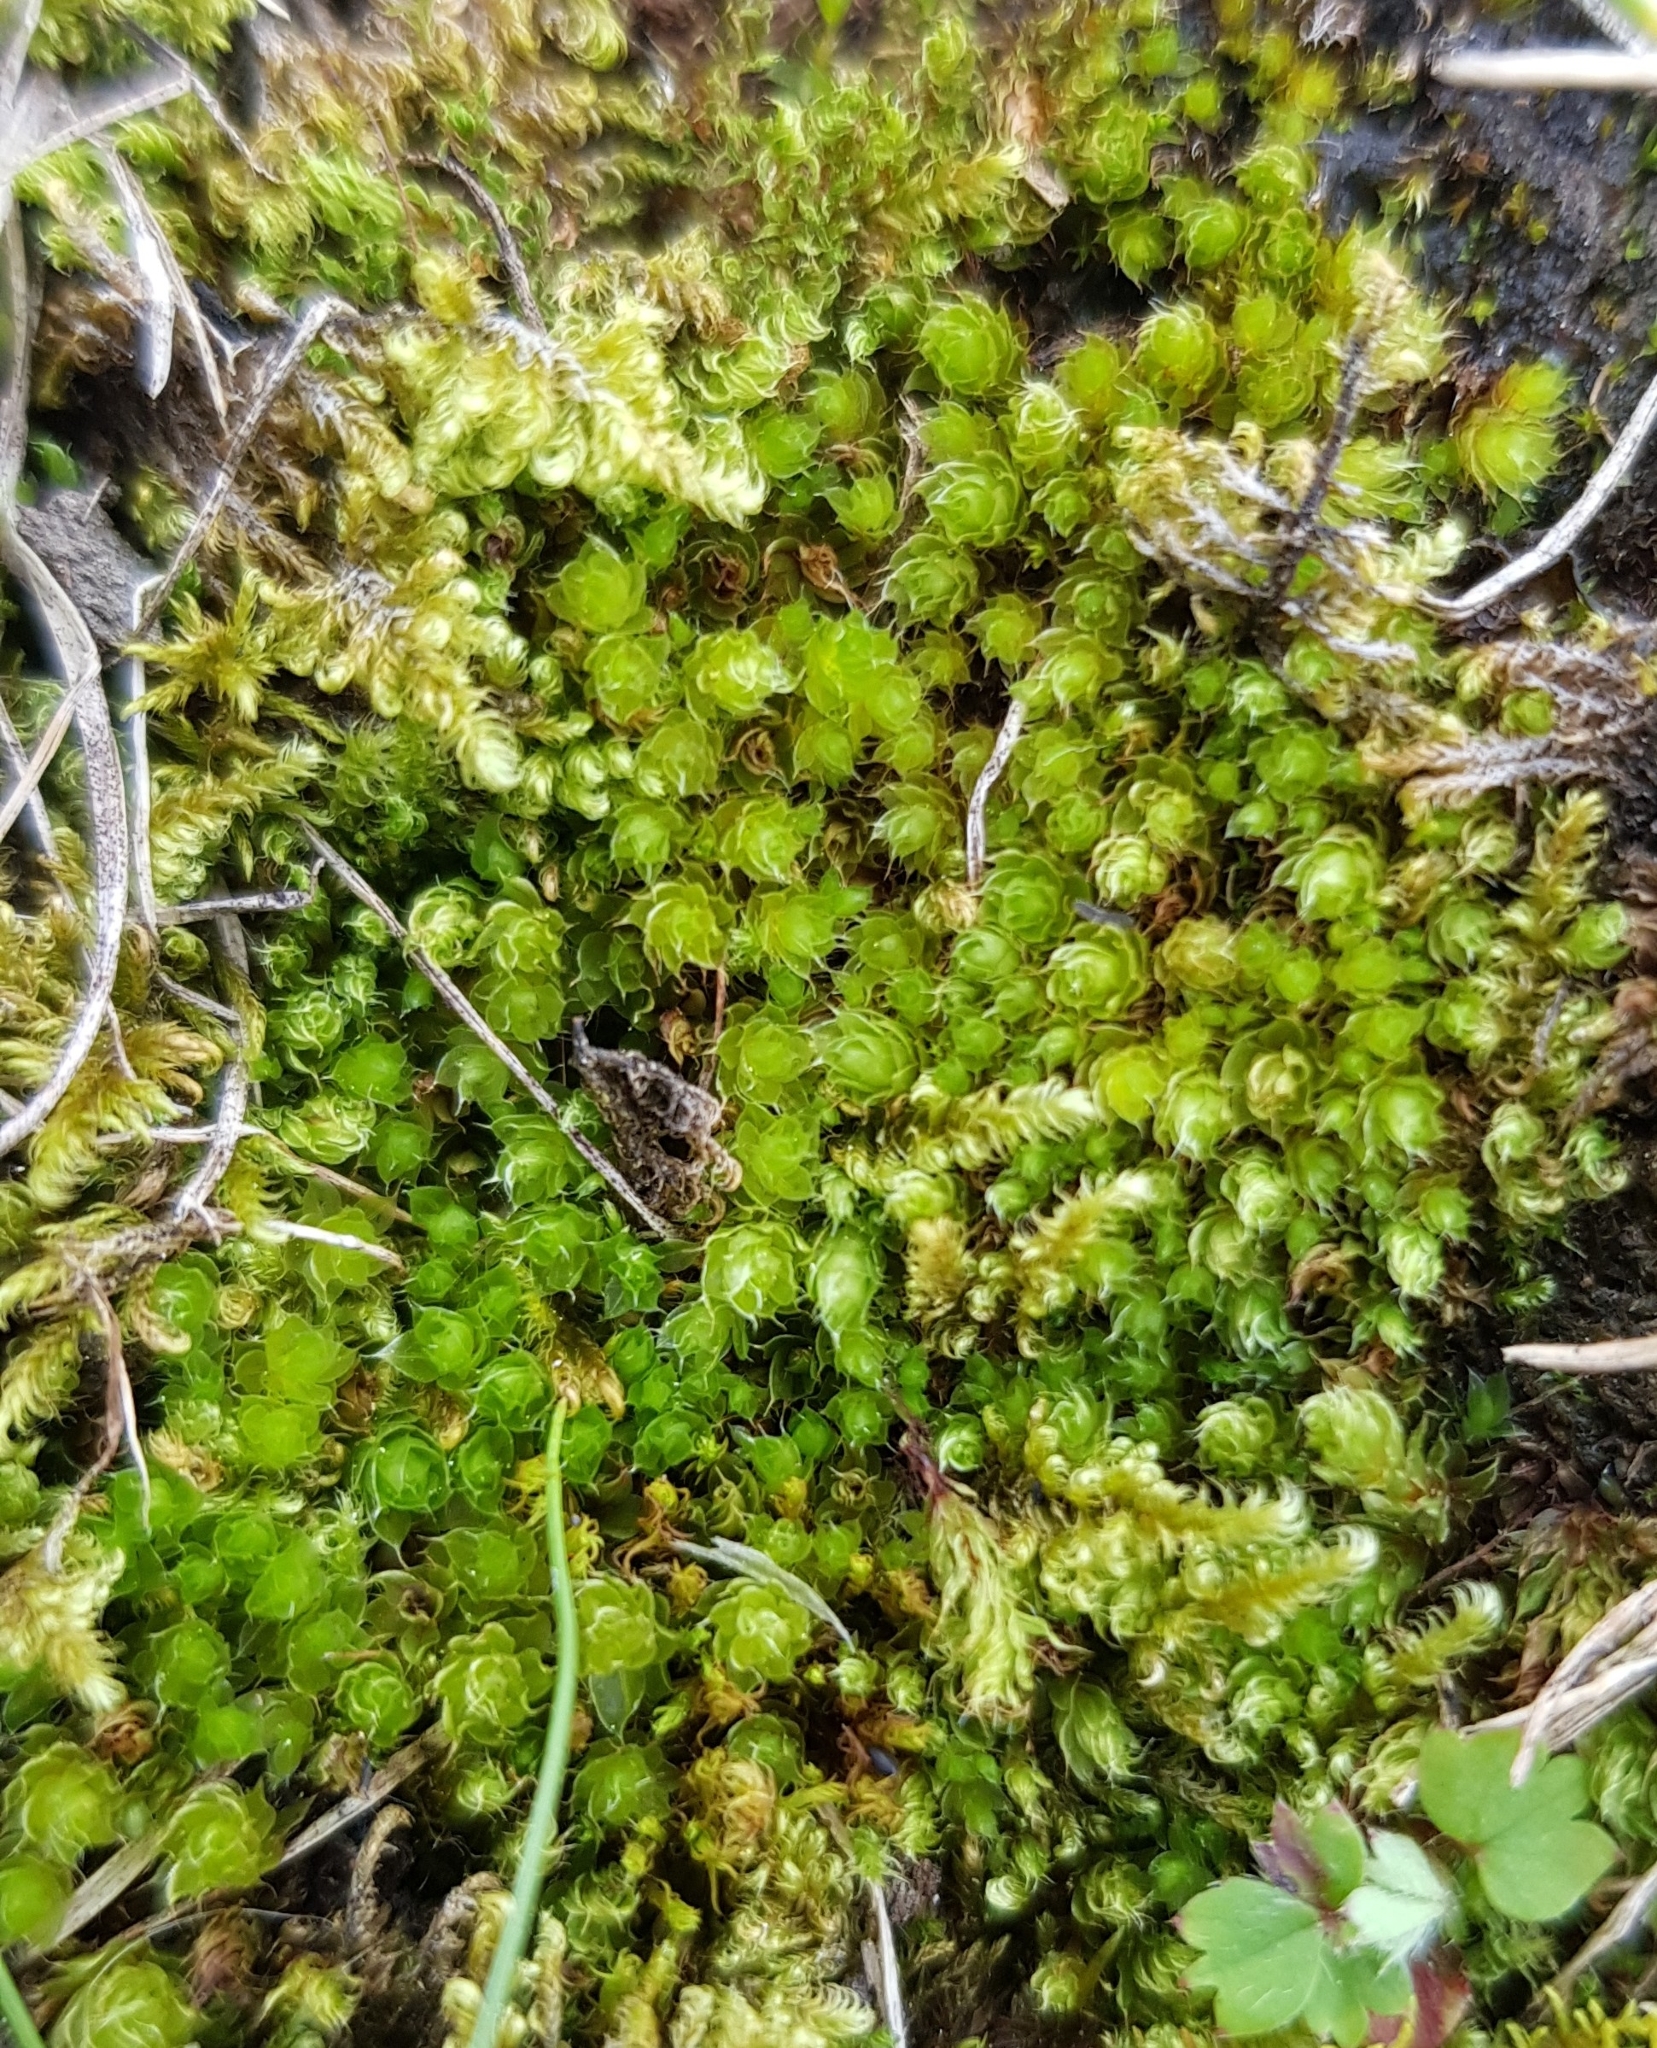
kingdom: Plantae
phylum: Bryophyta
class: Bryopsida
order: Bryales
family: Bryaceae
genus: Rosulabryum
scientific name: Rosulabryum capillare
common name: Capillary thread-moss
